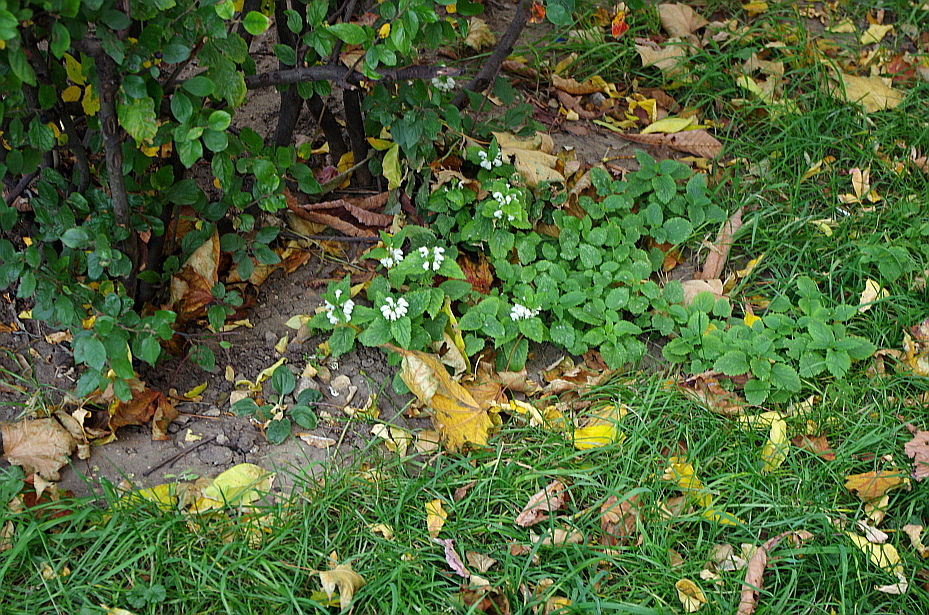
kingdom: Plantae
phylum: Tracheophyta
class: Magnoliopsida
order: Lamiales
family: Lamiaceae
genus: Lamium
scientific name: Lamium album
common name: White dead-nettle
